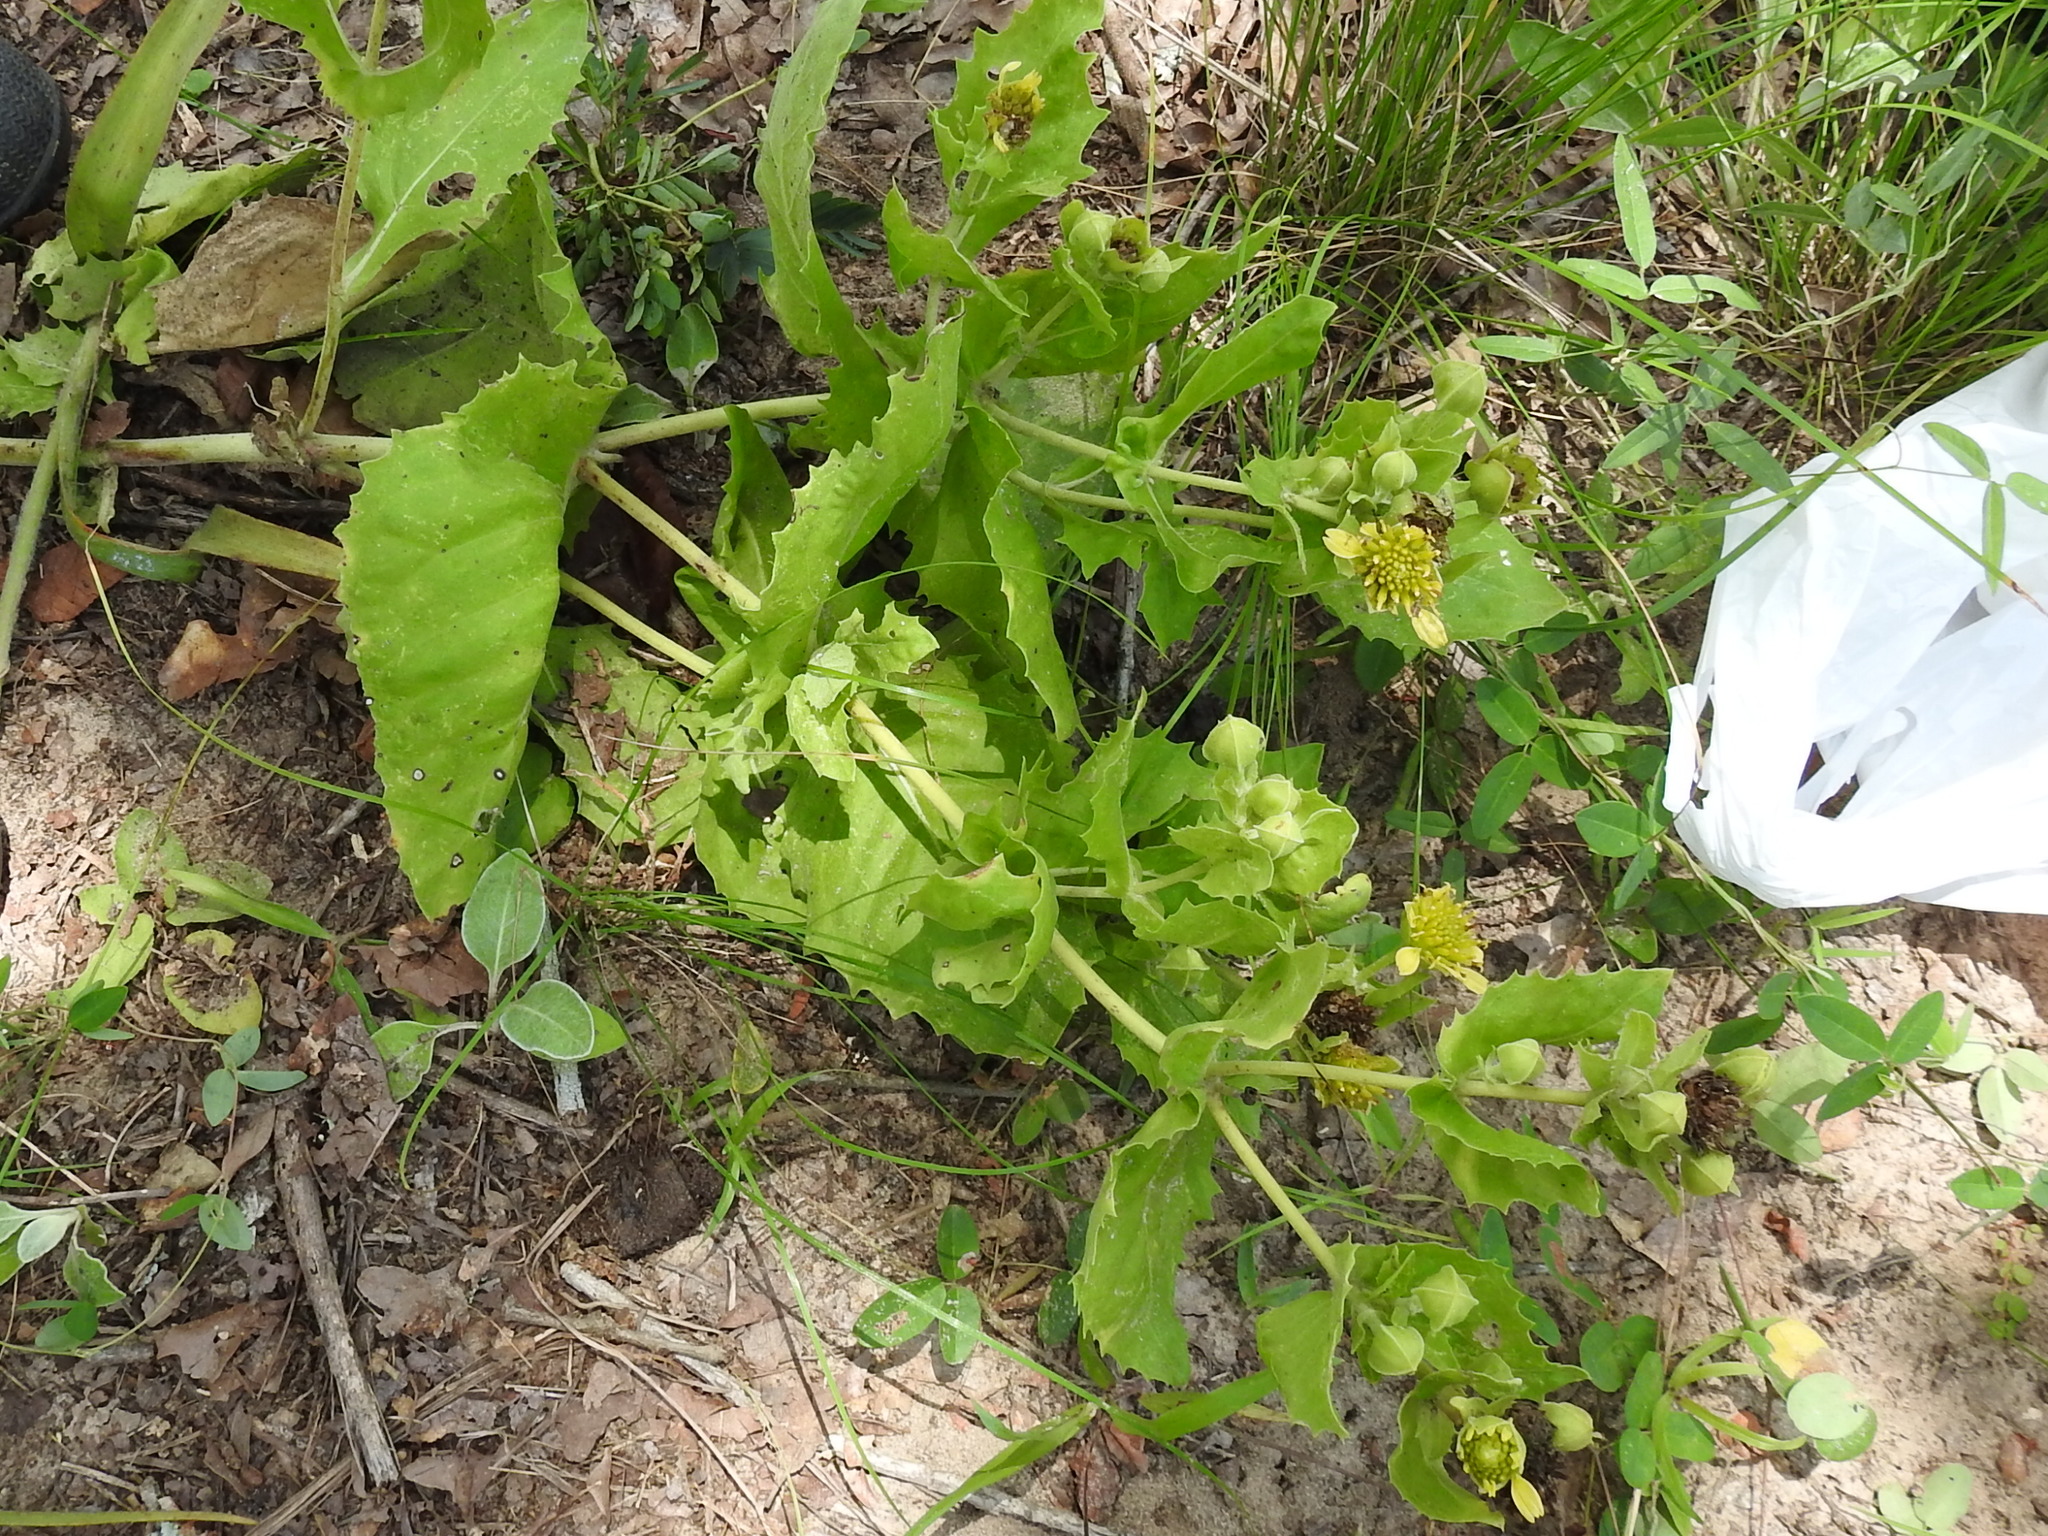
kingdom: Plantae
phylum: Tracheophyta
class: Magnoliopsida
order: Asterales
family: Asteraceae
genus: Tetragonotheca
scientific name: Tetragonotheca ludoviciana
